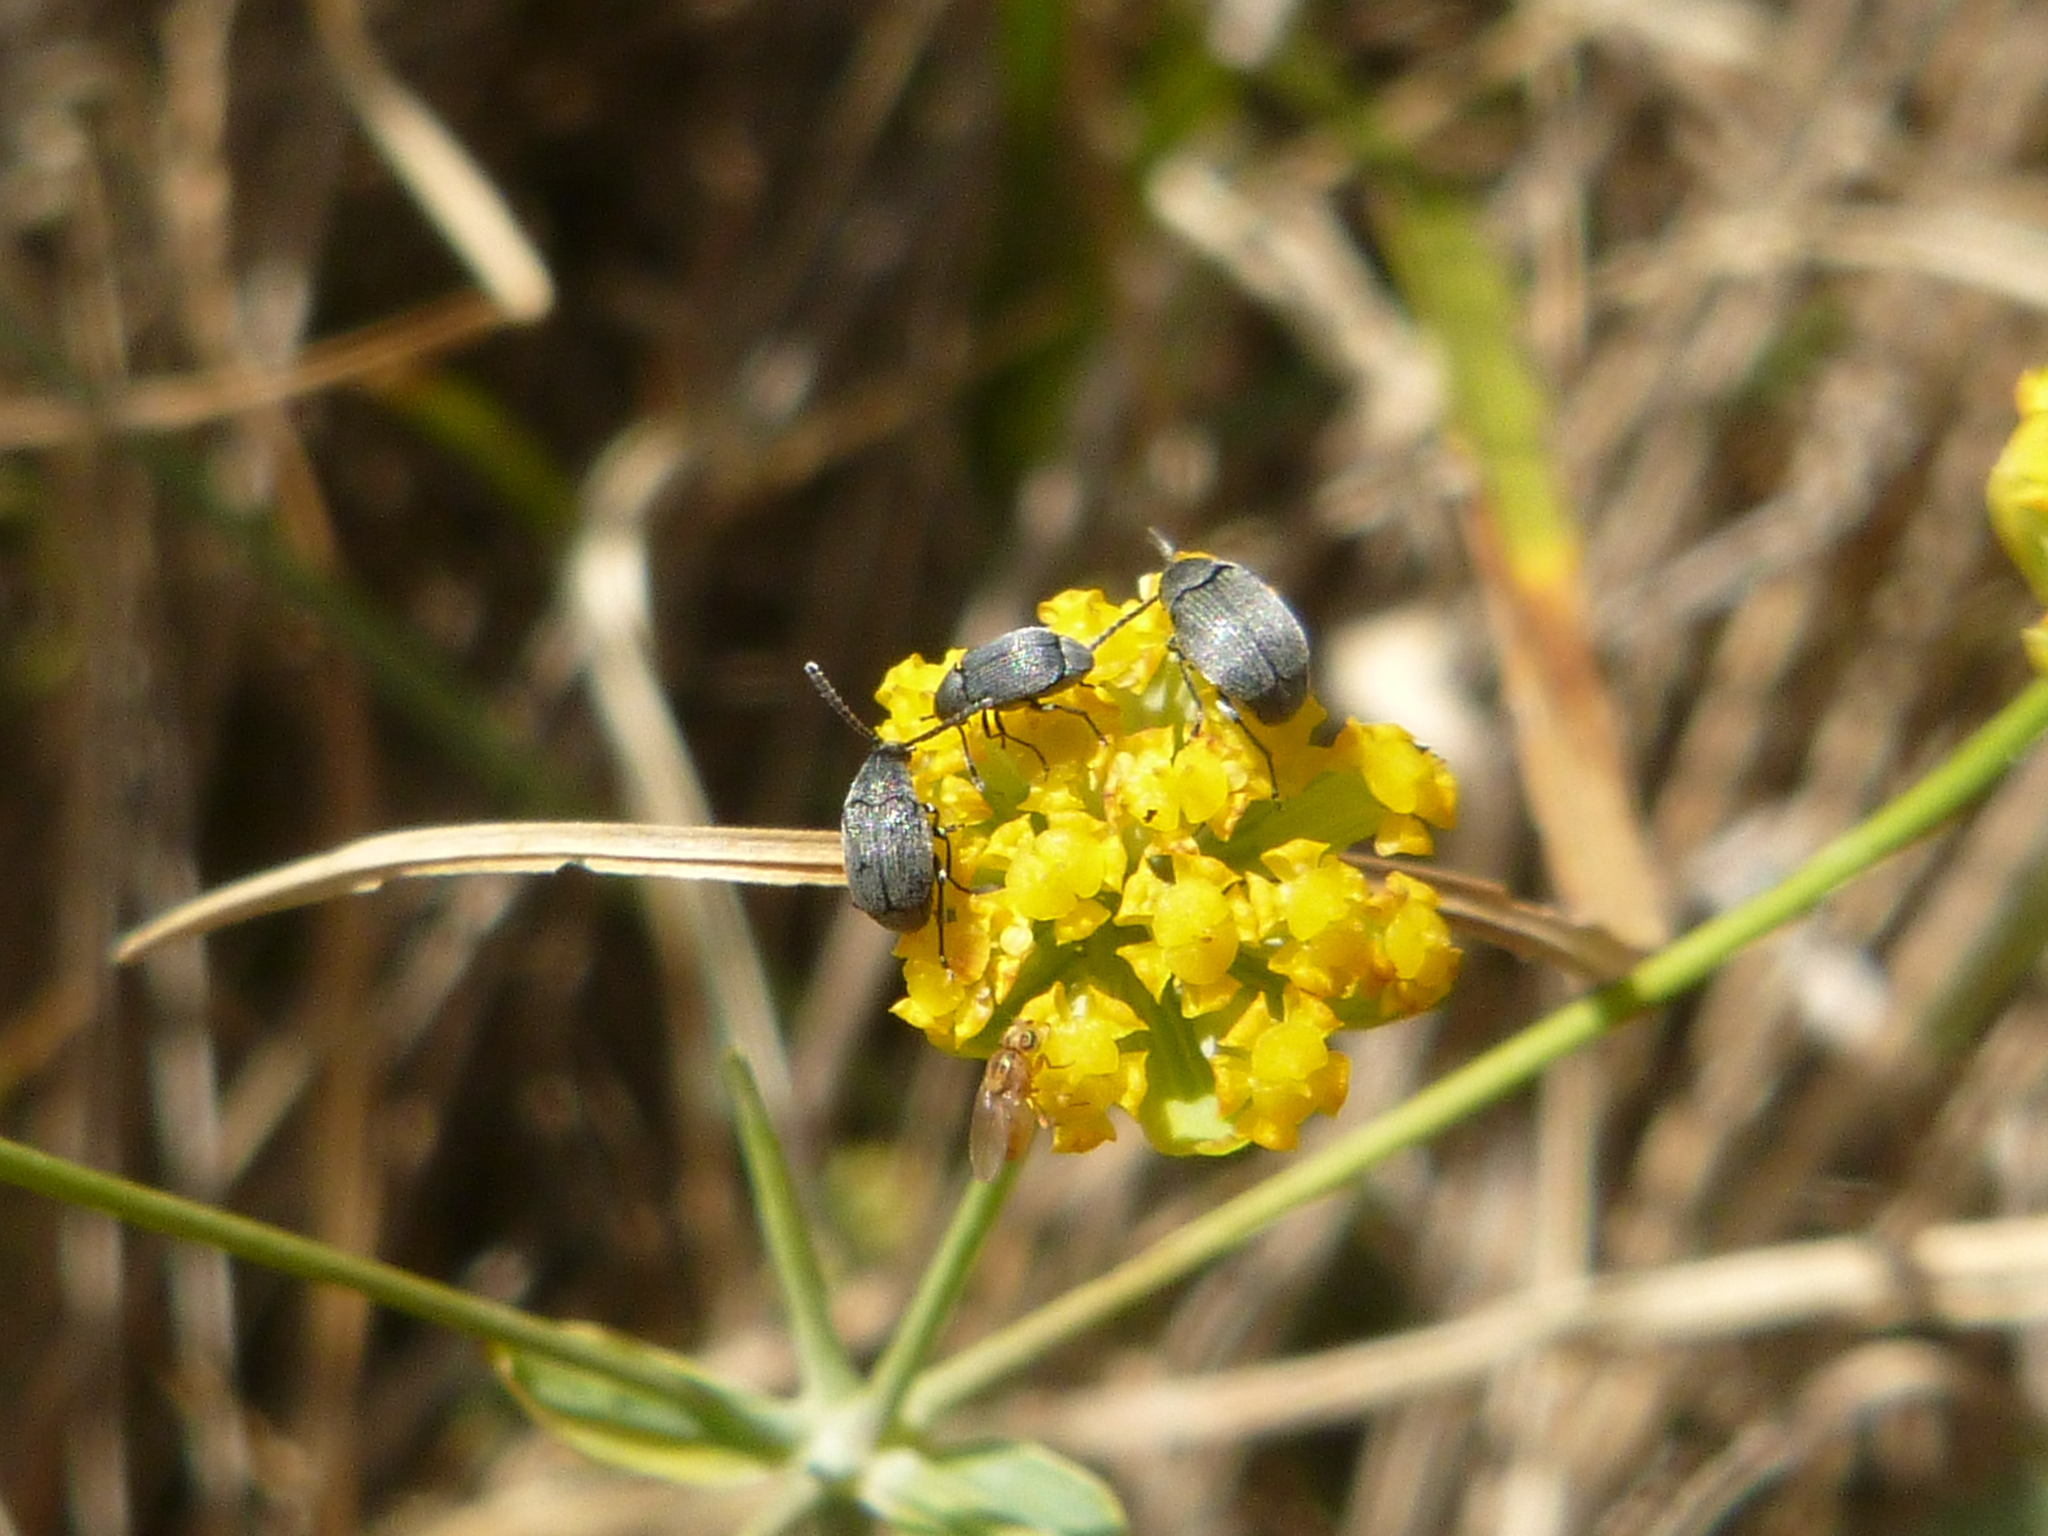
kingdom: Plantae
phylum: Tracheophyta
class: Magnoliopsida
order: Apiales
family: Apiaceae
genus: Bupleurum
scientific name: Bupleurum falcatum
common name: Sickle-leaved hare's-ear
